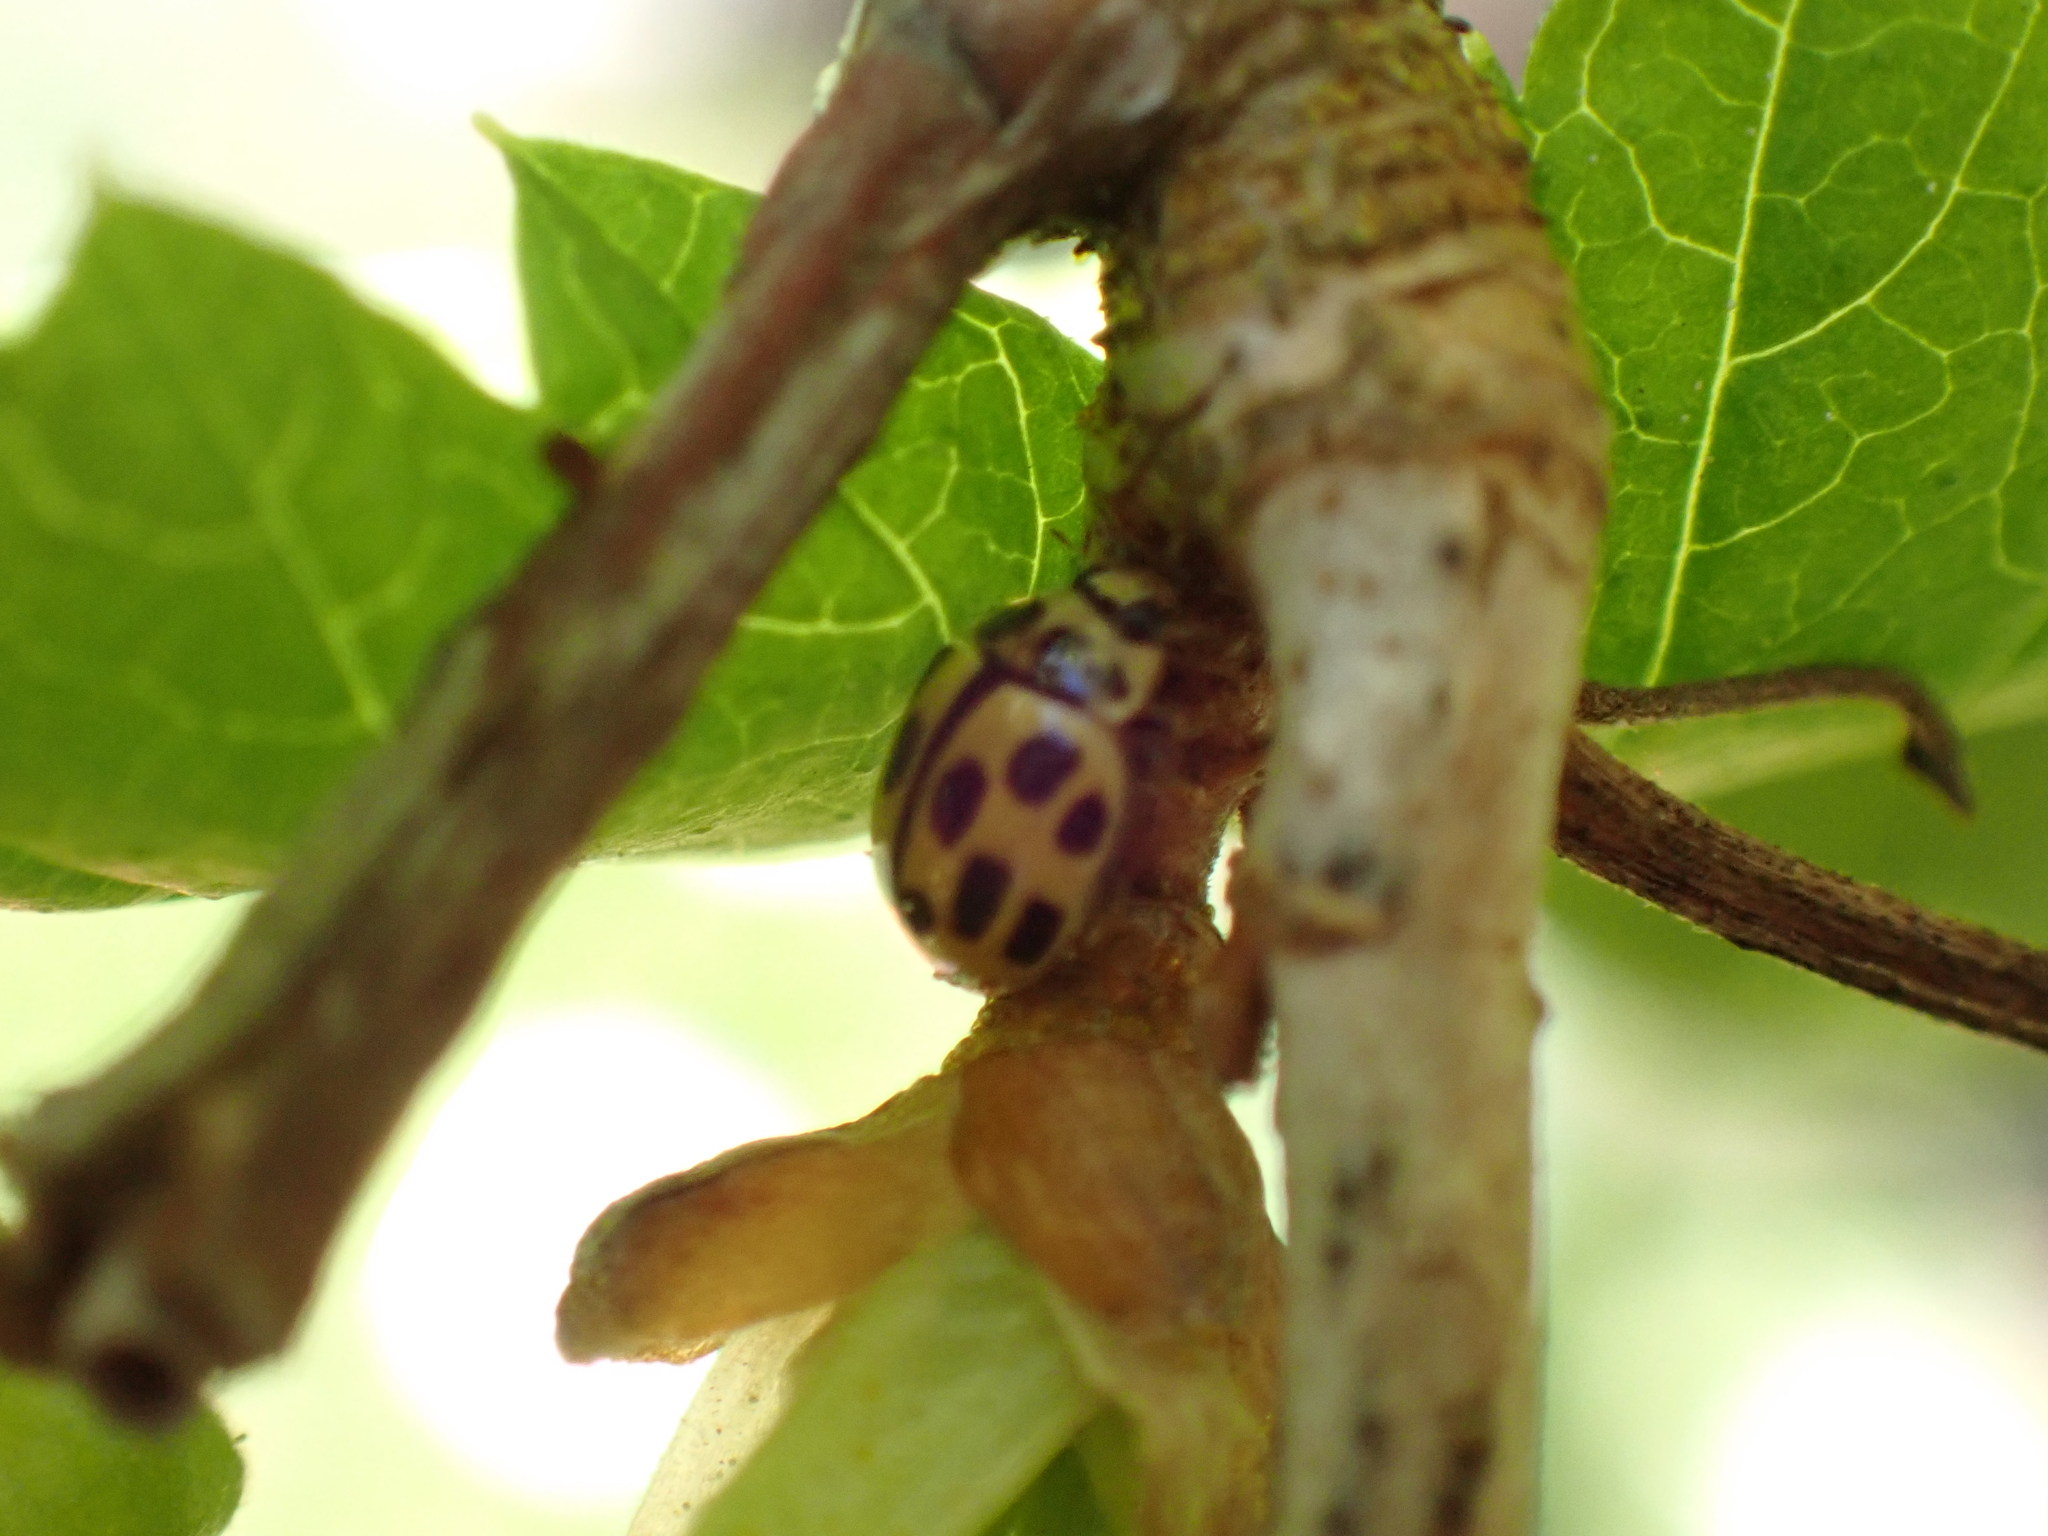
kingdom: Animalia
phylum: Arthropoda
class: Insecta
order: Coleoptera
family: Coccinellidae
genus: Propylaea
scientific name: Propylaea quatuordecimpunctata
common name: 14-spotted ladybird beetle
